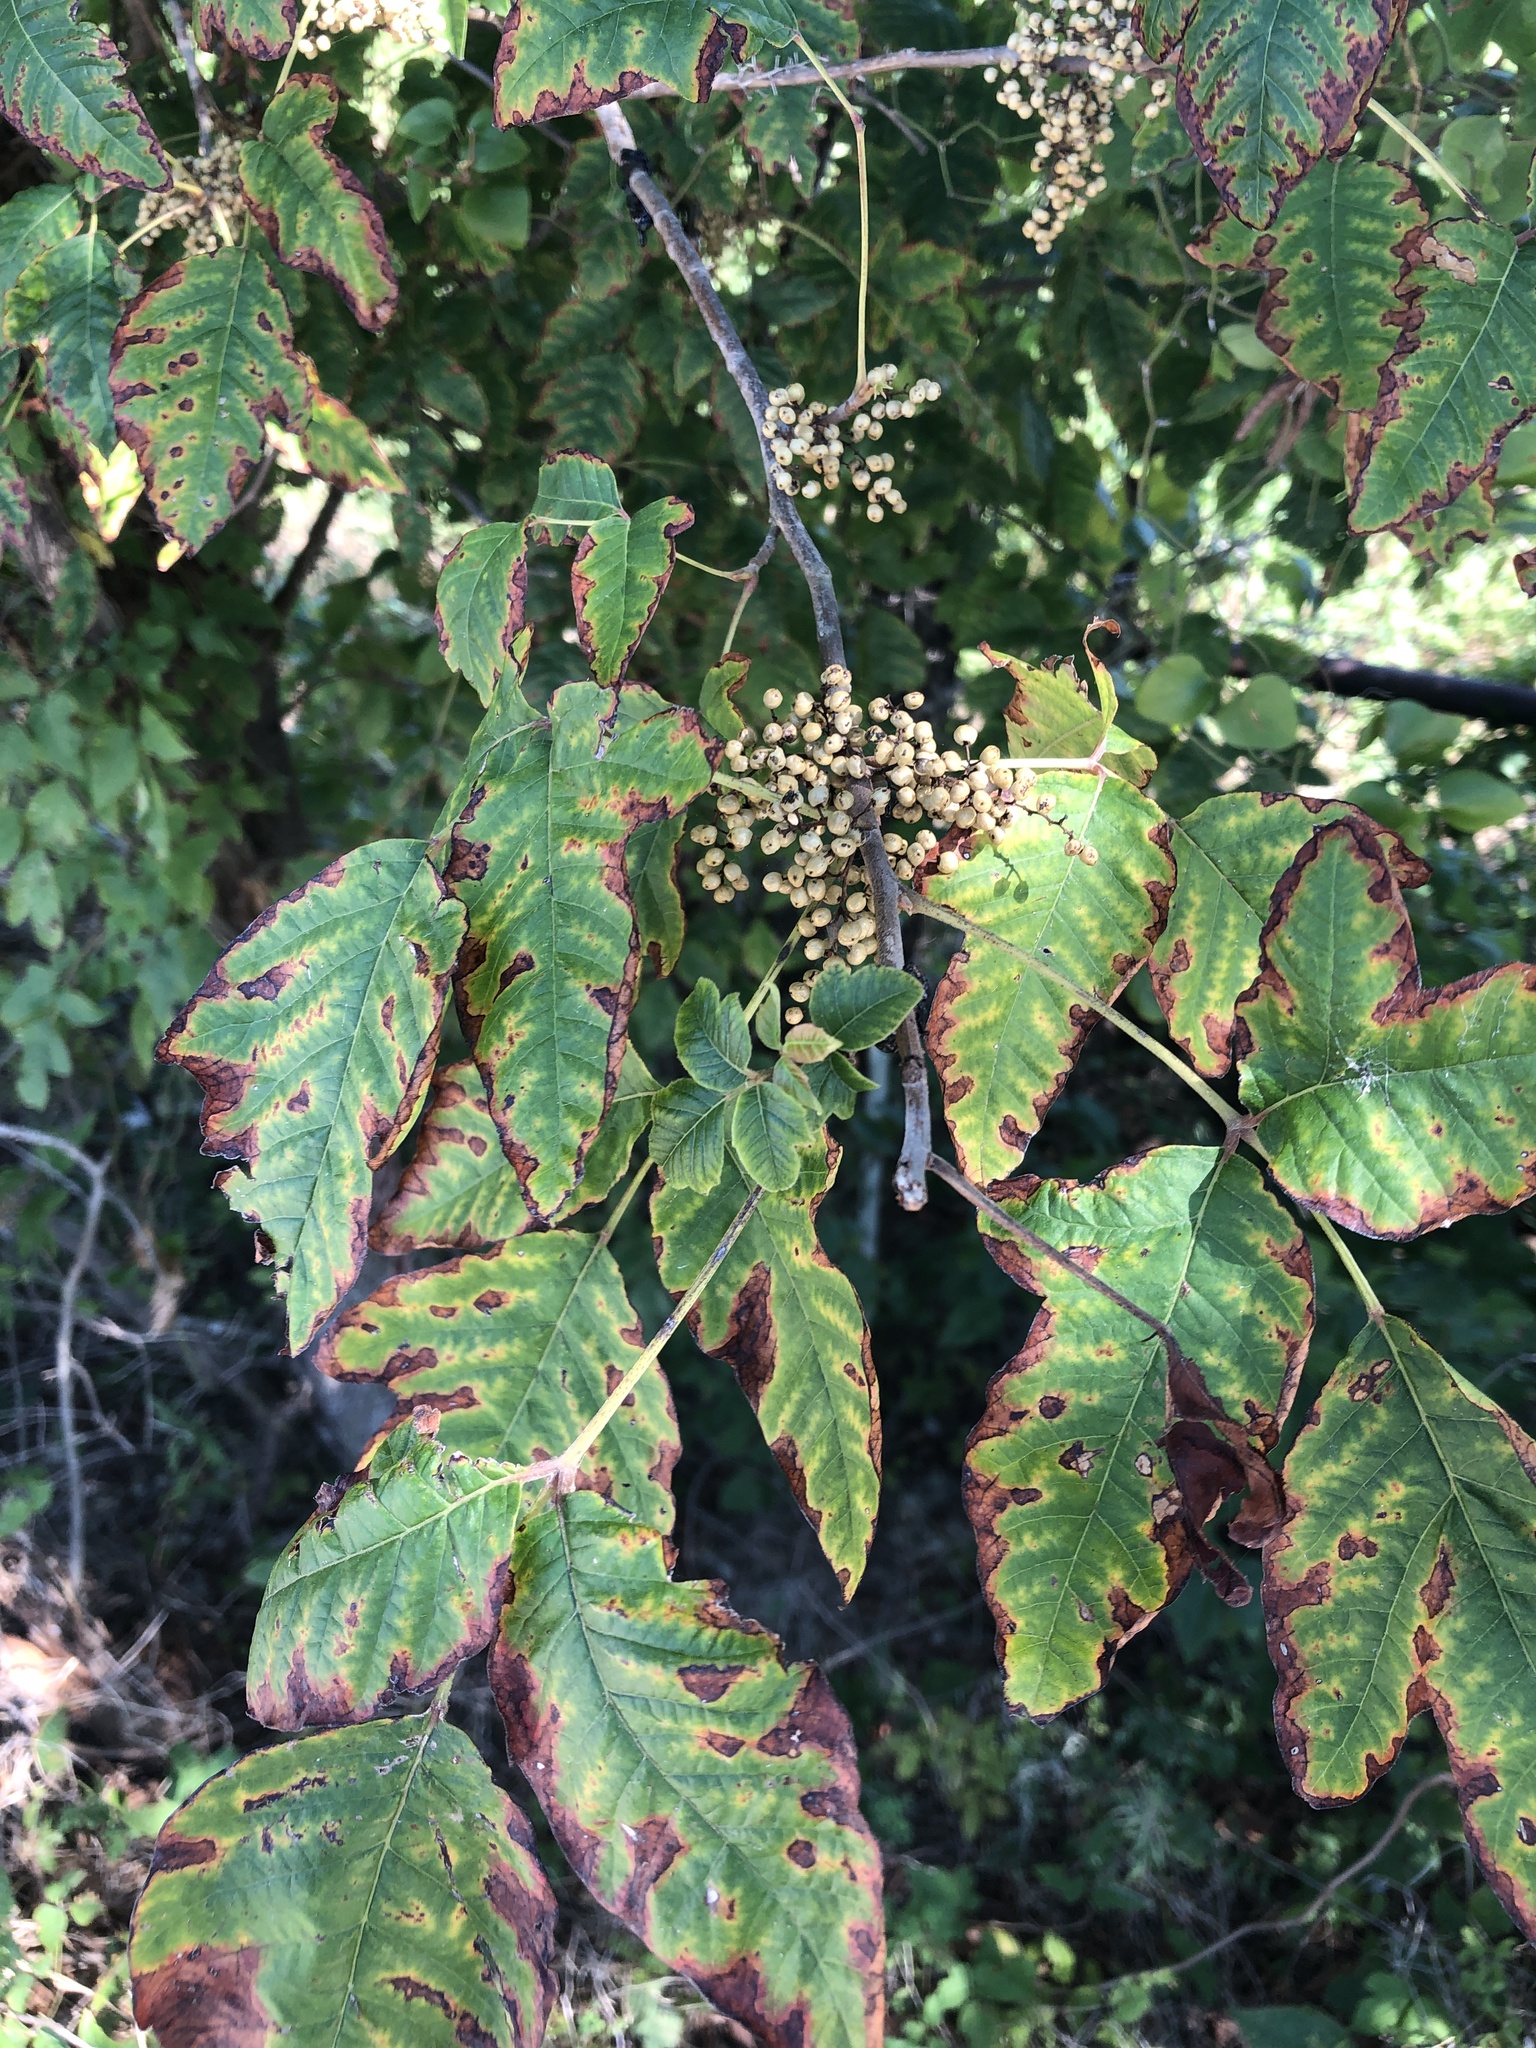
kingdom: Plantae
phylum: Tracheophyta
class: Magnoliopsida
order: Sapindales
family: Anacardiaceae
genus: Toxicodendron
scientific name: Toxicodendron radicans
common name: Poison ivy
